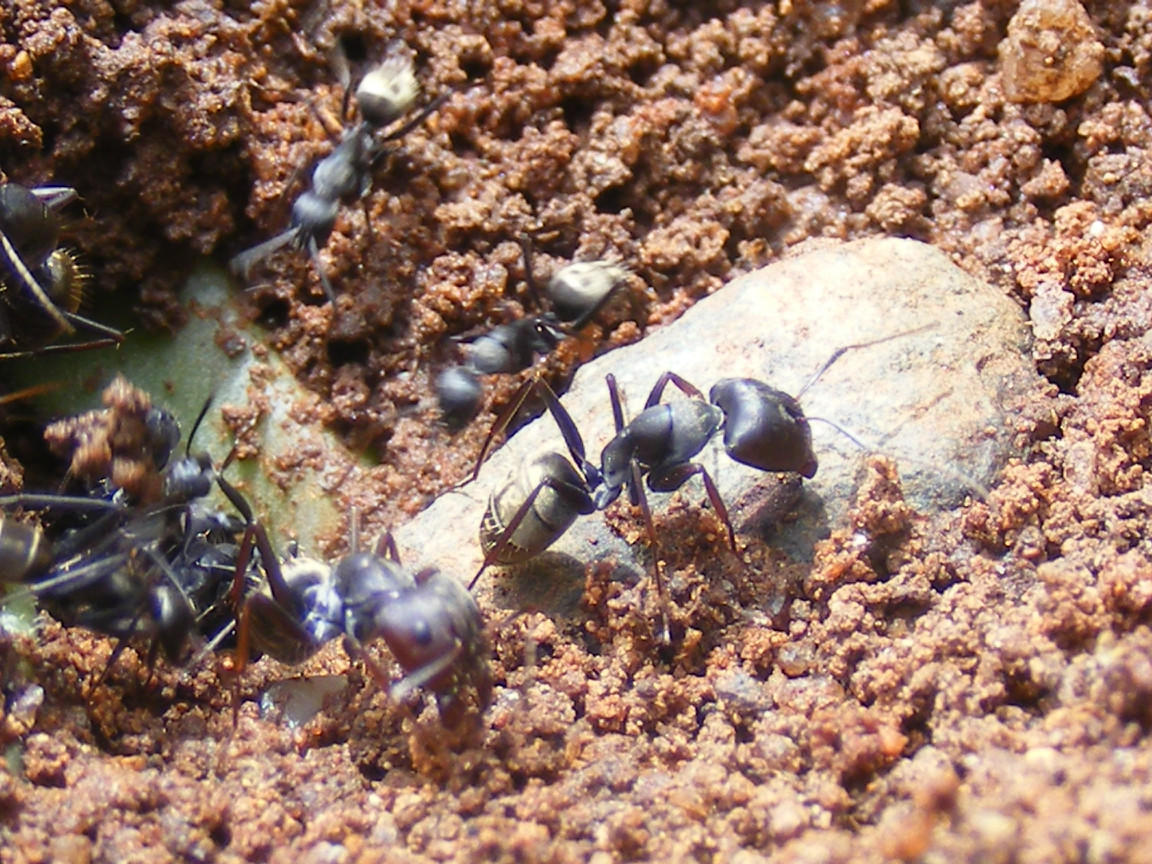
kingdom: Animalia
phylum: Arthropoda
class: Insecta
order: Hymenoptera
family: Formicidae
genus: Camponotus
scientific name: Camponotus cinctellus
